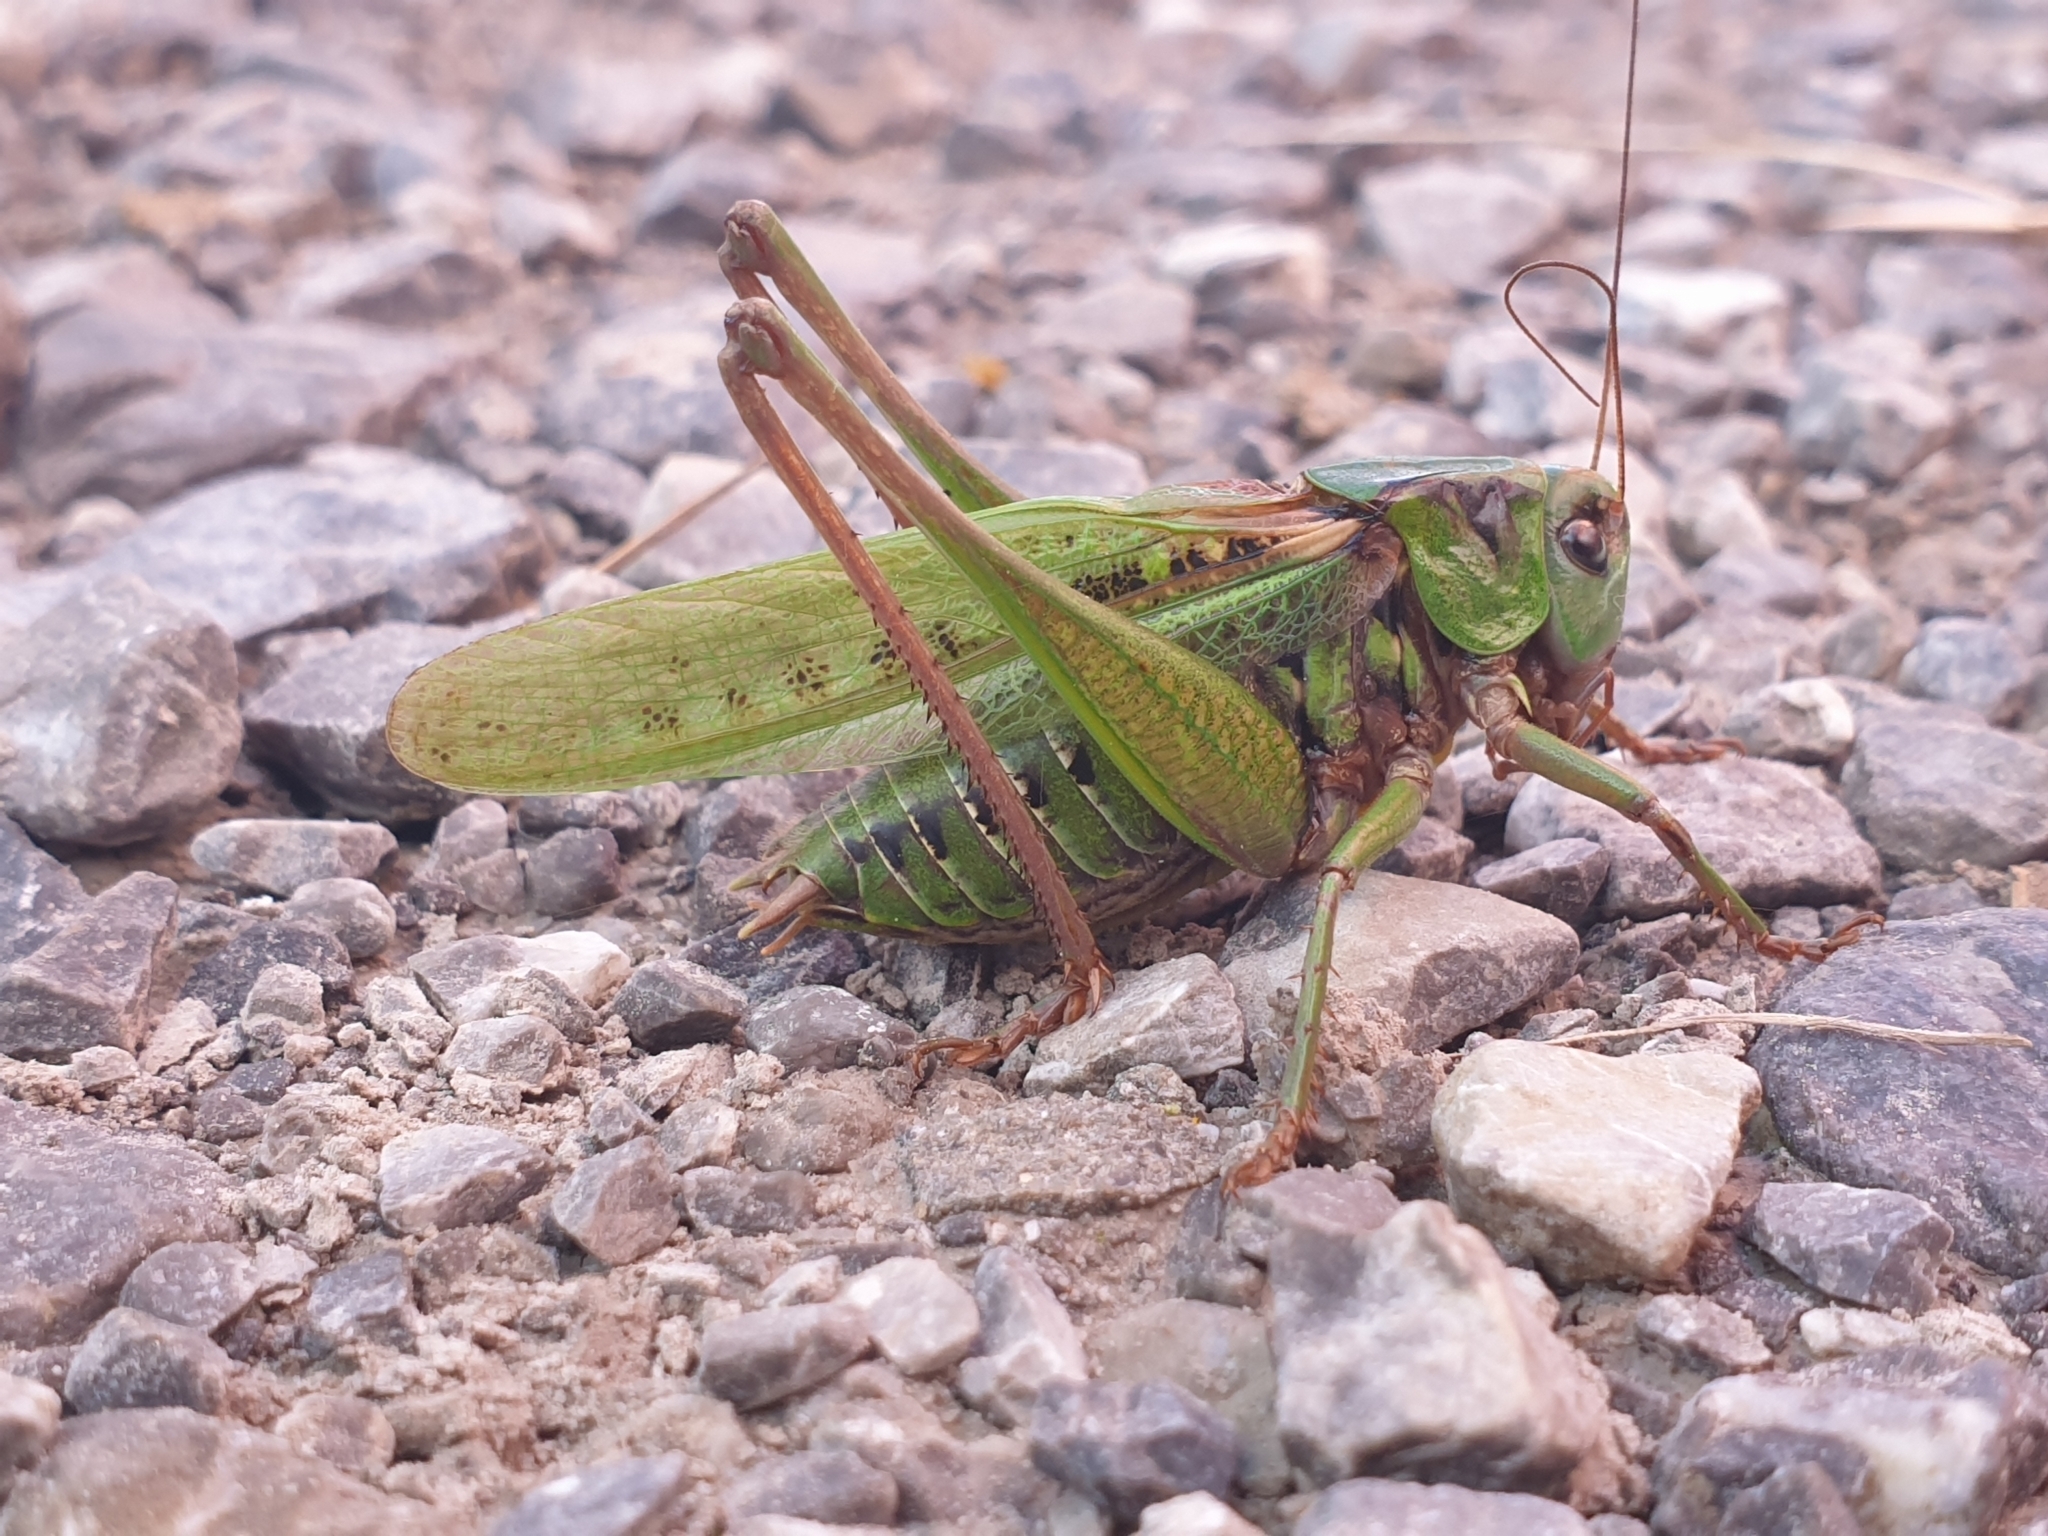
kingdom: Animalia
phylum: Arthropoda
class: Insecta
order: Orthoptera
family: Tettigoniidae
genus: Decticus
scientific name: Decticus verrucivorus
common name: Wart-biter
